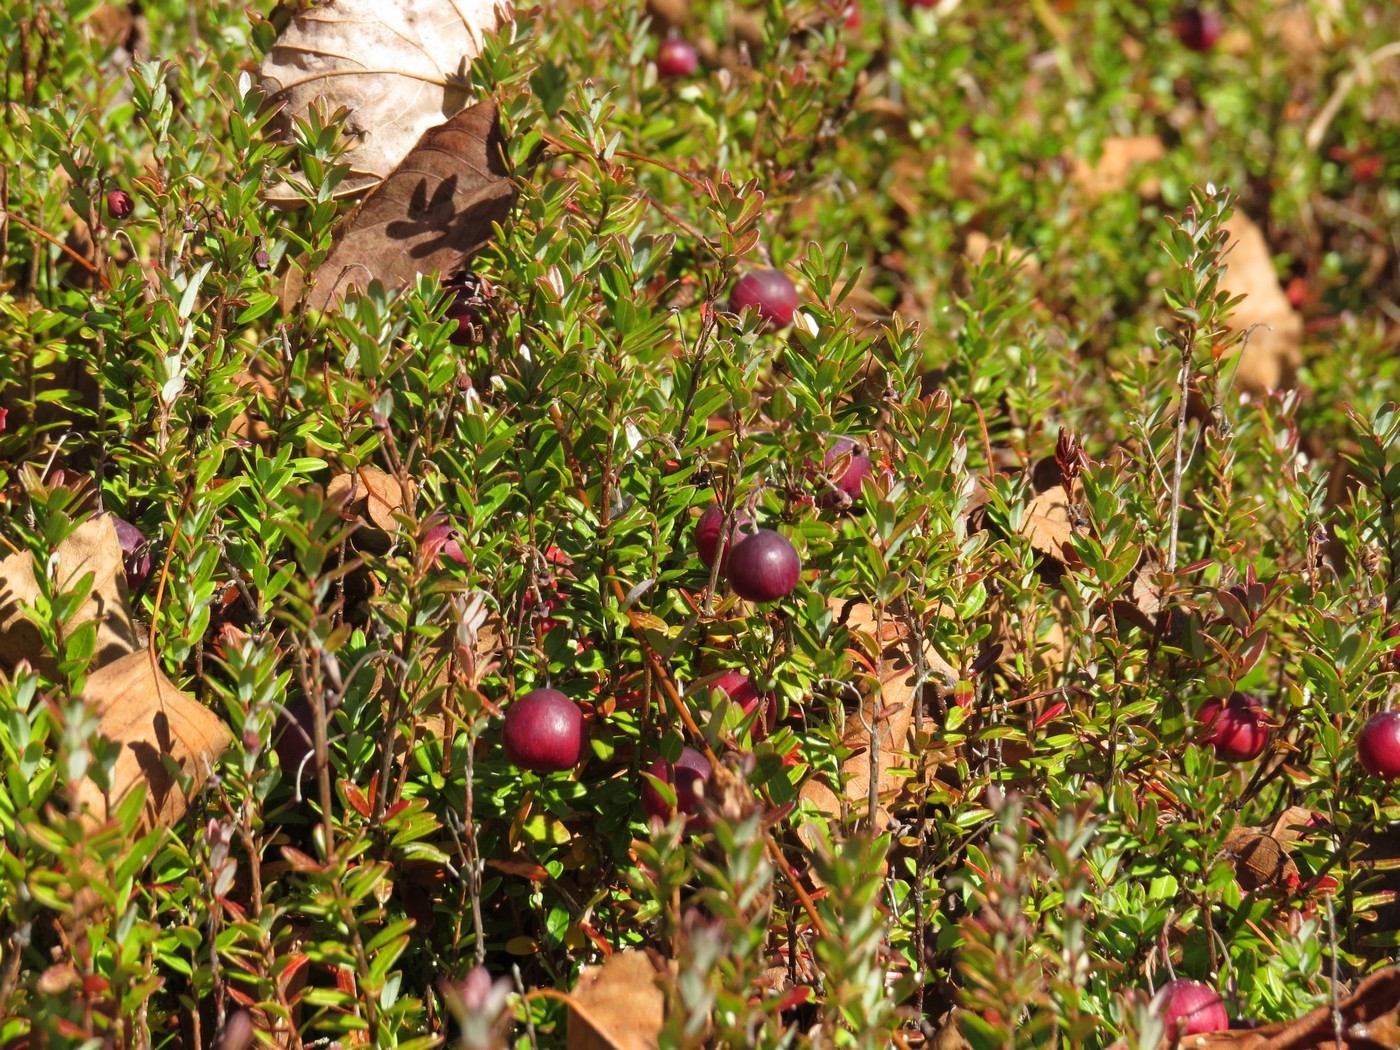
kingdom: Plantae
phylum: Tracheophyta
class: Magnoliopsida
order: Ericales
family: Ericaceae
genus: Vaccinium
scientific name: Vaccinium macrocarpon
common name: American cranberry
